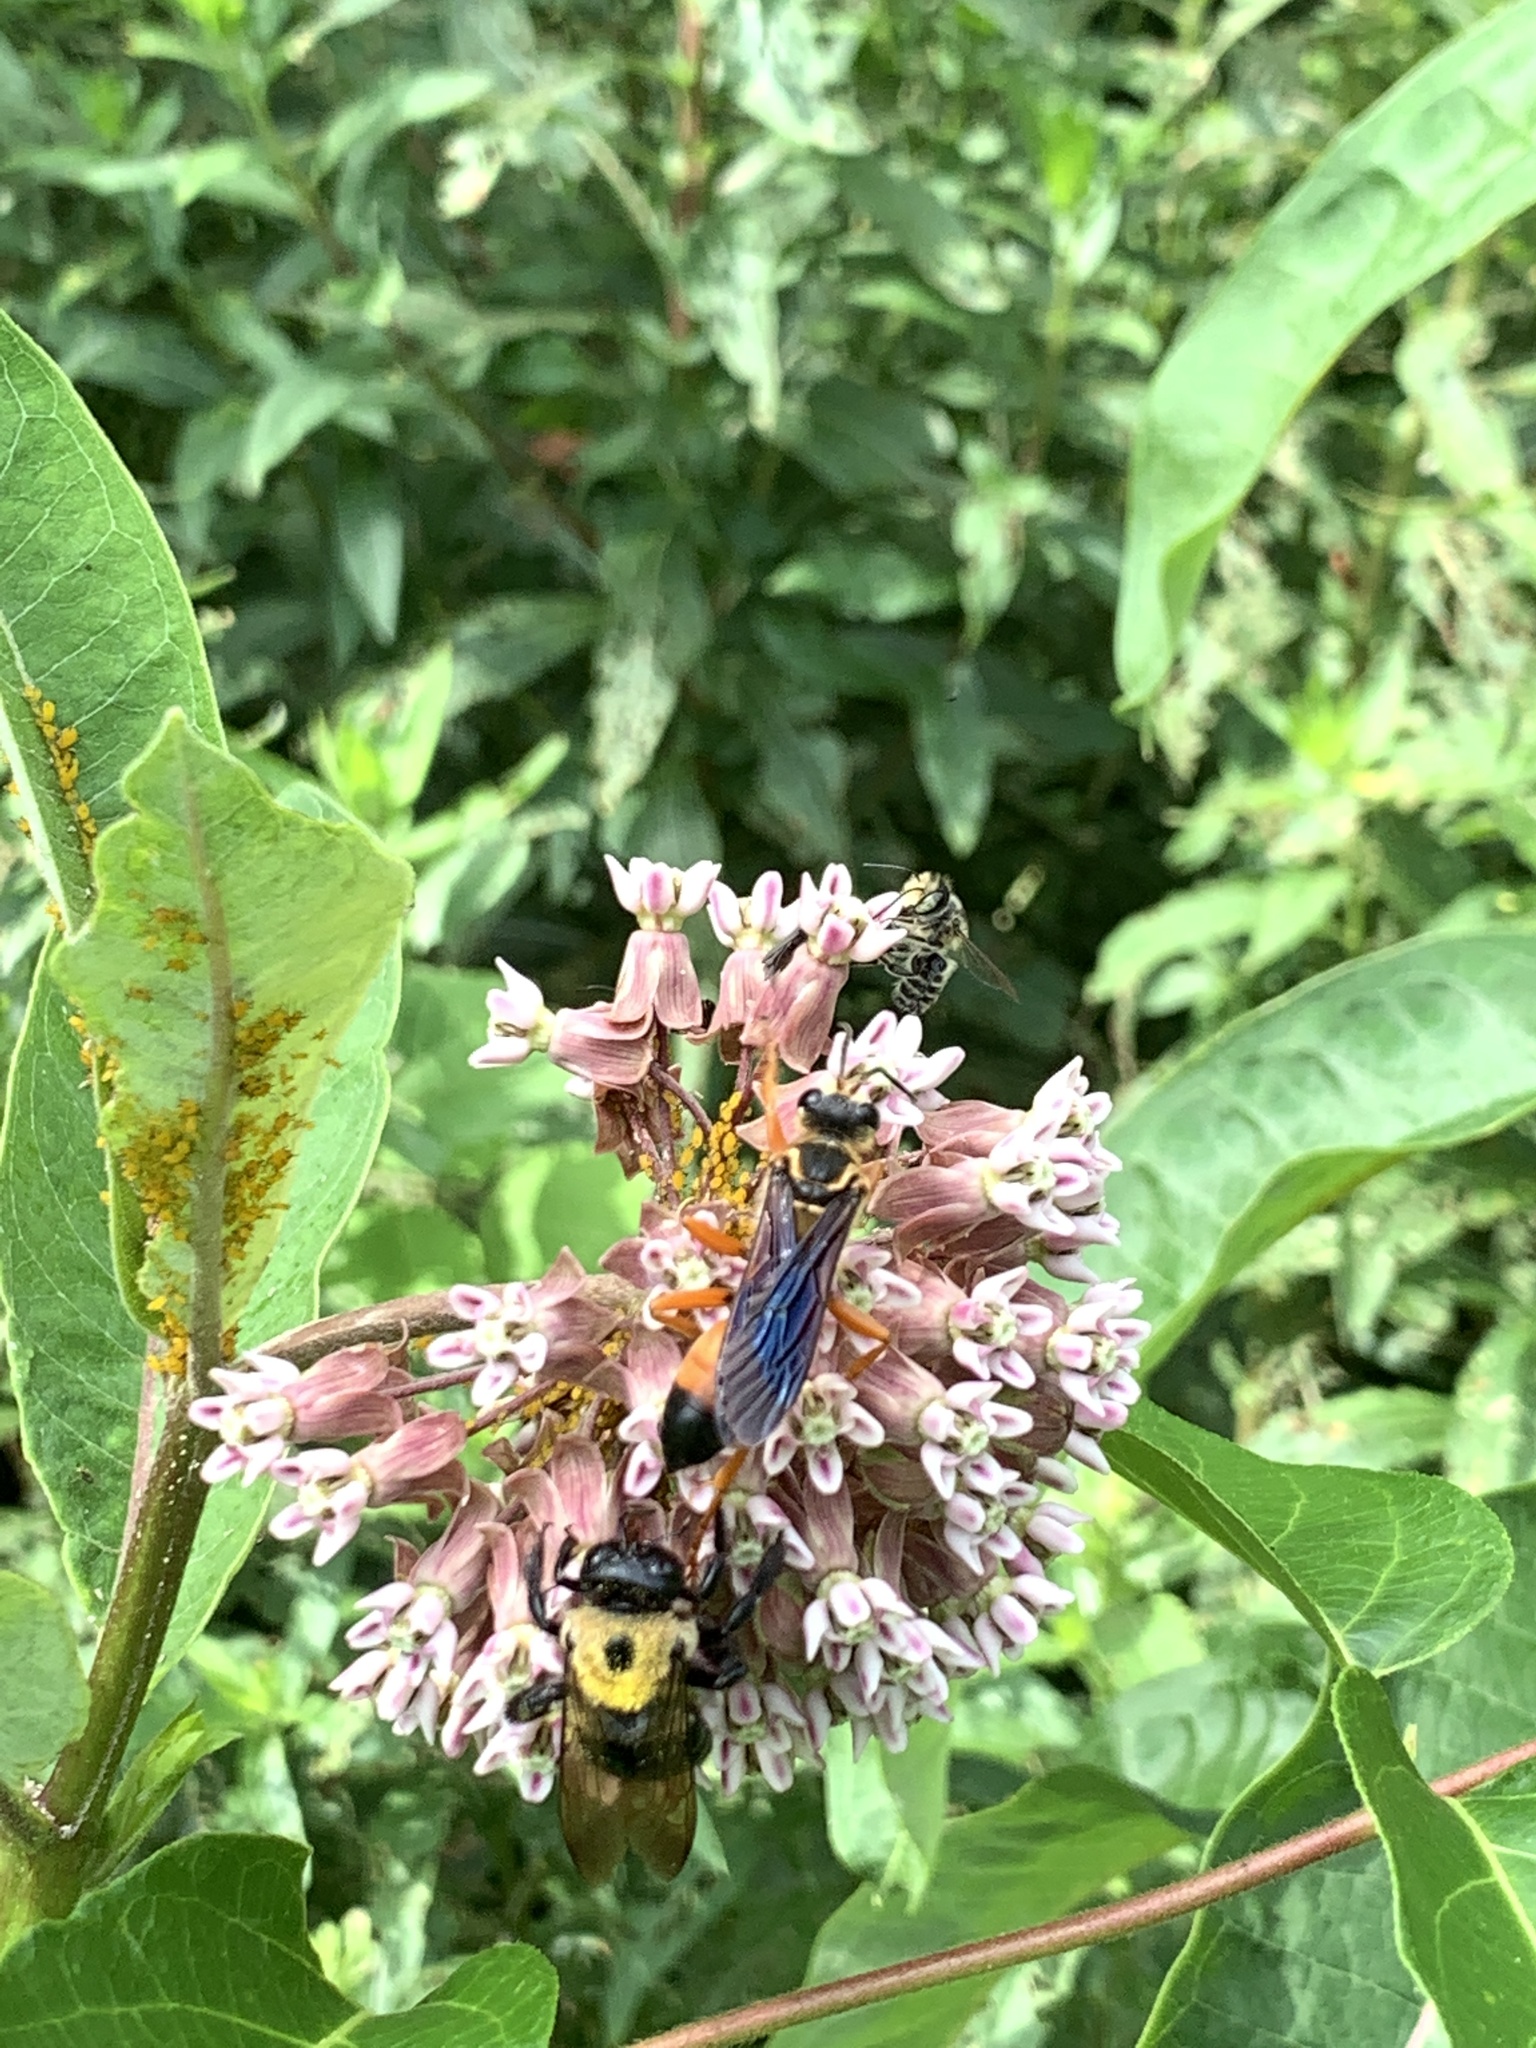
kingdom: Animalia
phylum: Arthropoda
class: Insecta
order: Hymenoptera
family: Sphecidae
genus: Sphex
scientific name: Sphex ichneumoneus
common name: Great golden digger wasp
